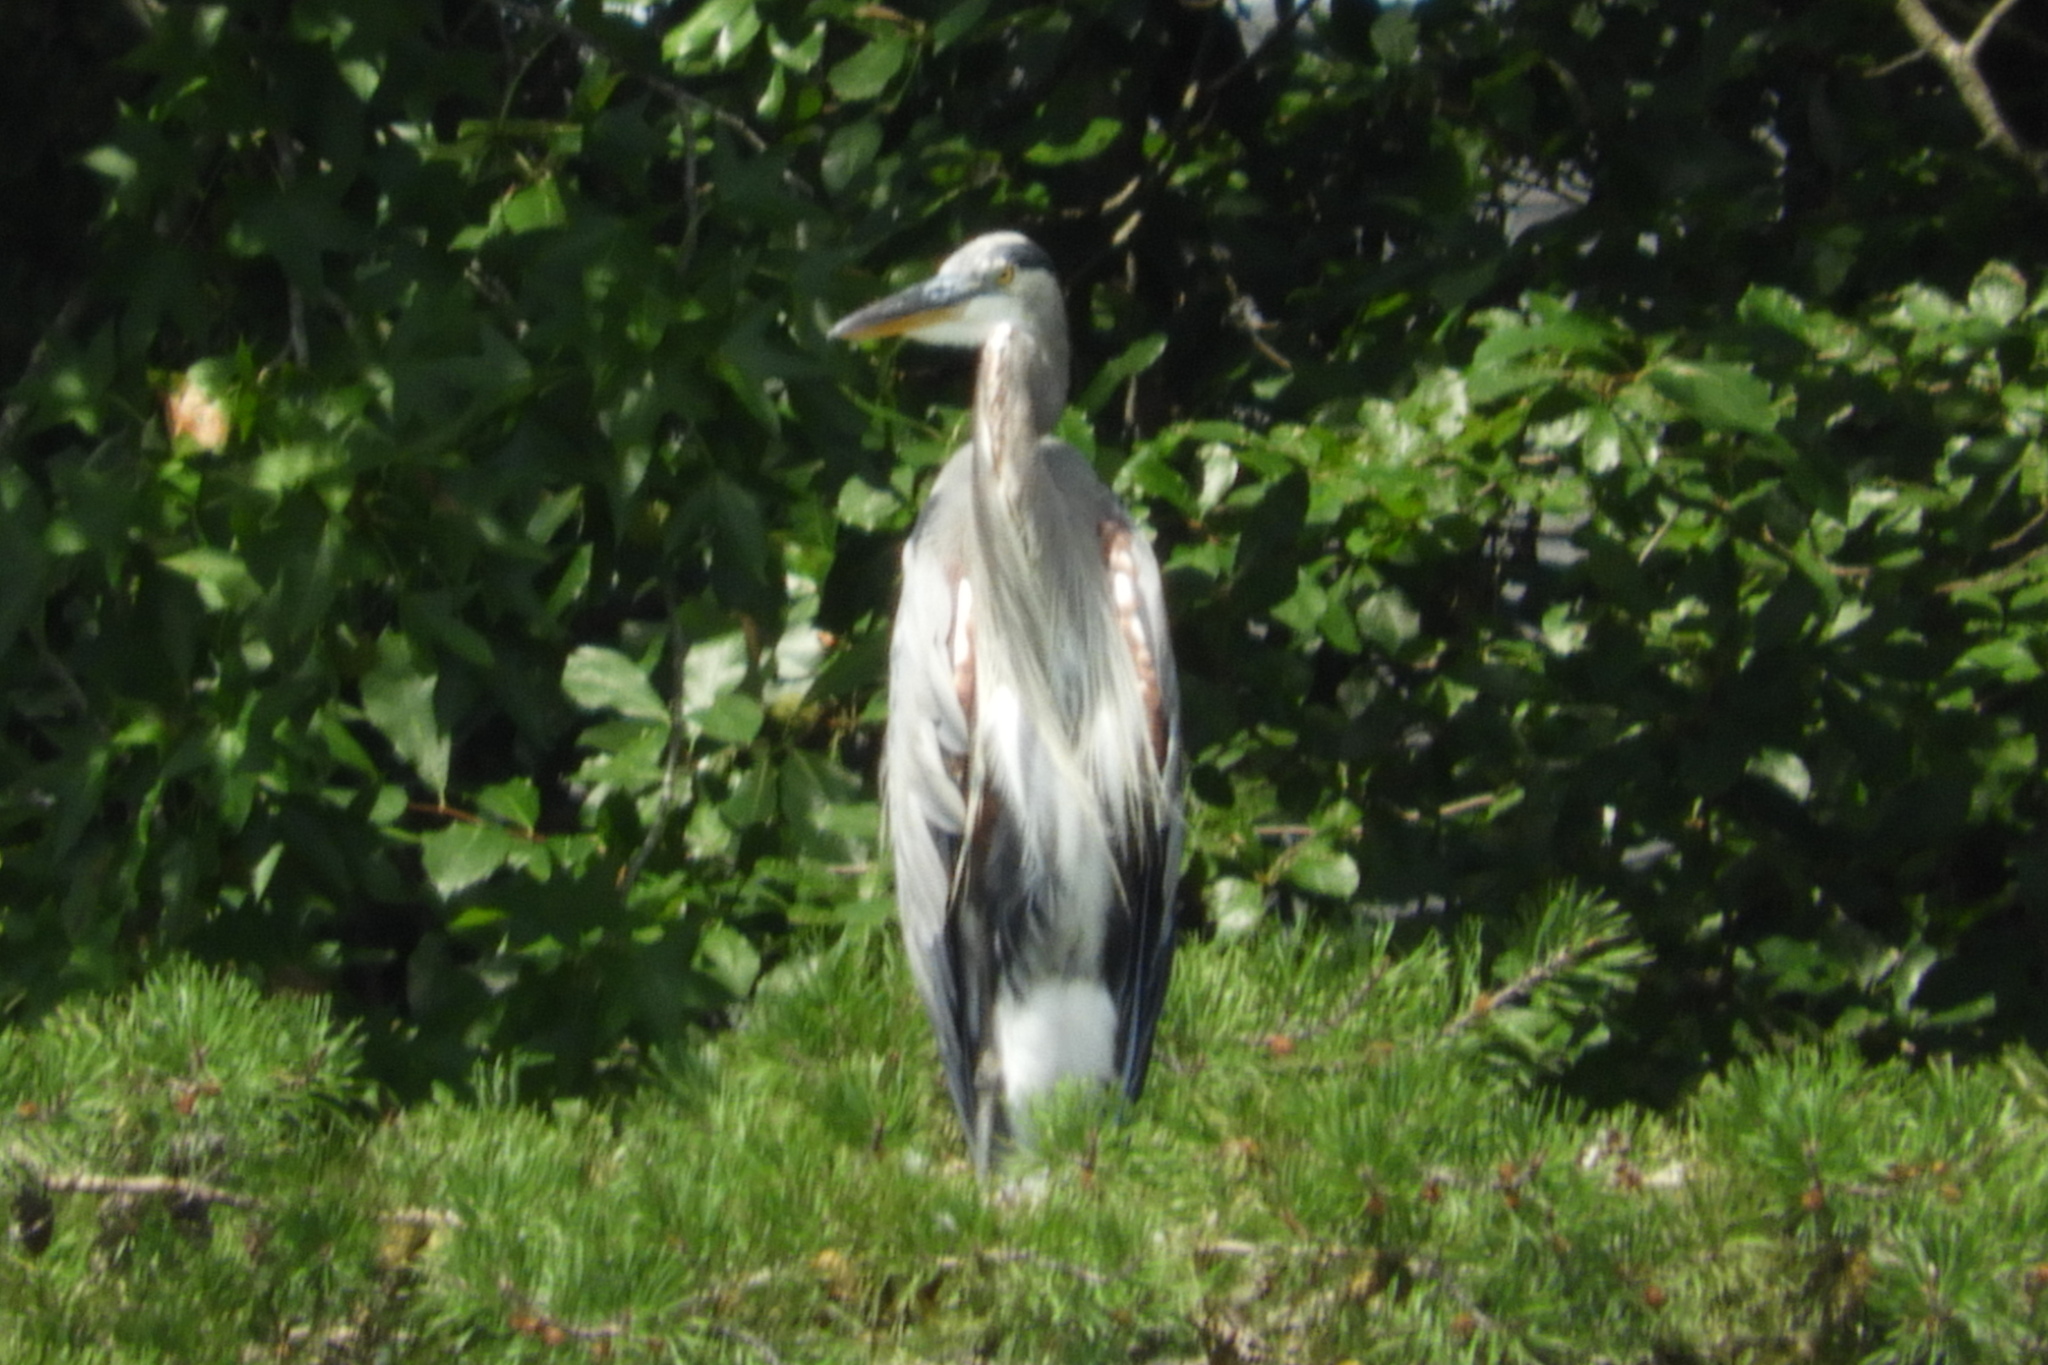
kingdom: Animalia
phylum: Chordata
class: Aves
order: Pelecaniformes
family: Ardeidae
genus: Ardea
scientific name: Ardea herodias
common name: Great blue heron
